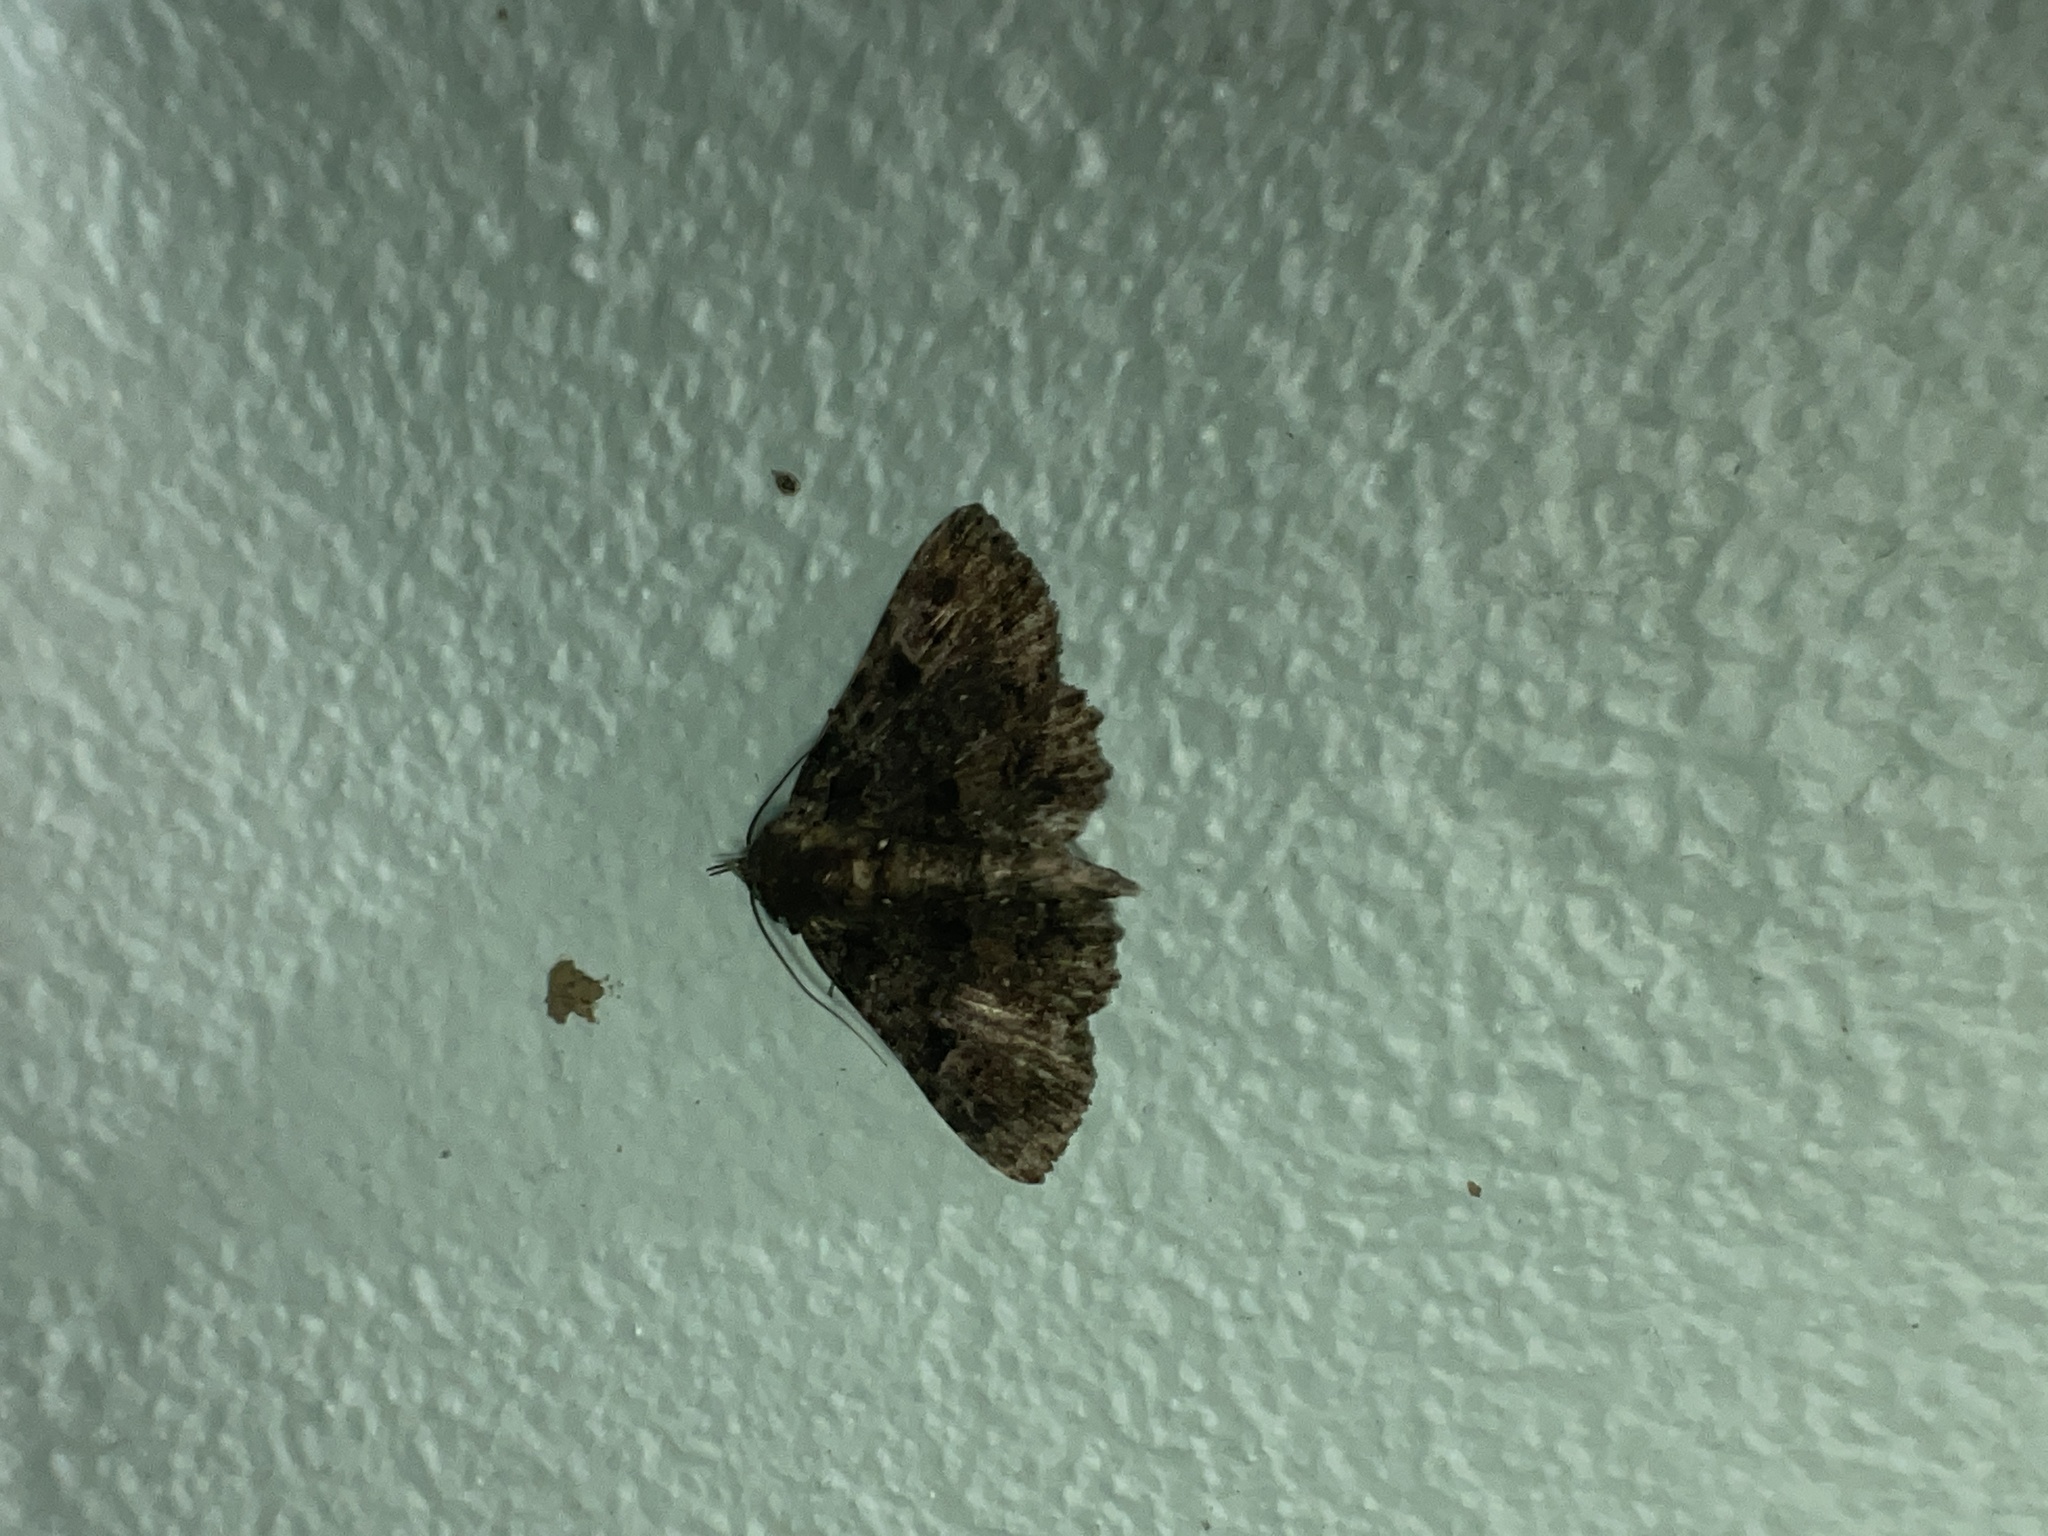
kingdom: Animalia
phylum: Arthropoda
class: Insecta
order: Lepidoptera
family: Erebidae
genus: Metalectra
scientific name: Metalectra praecisalis
